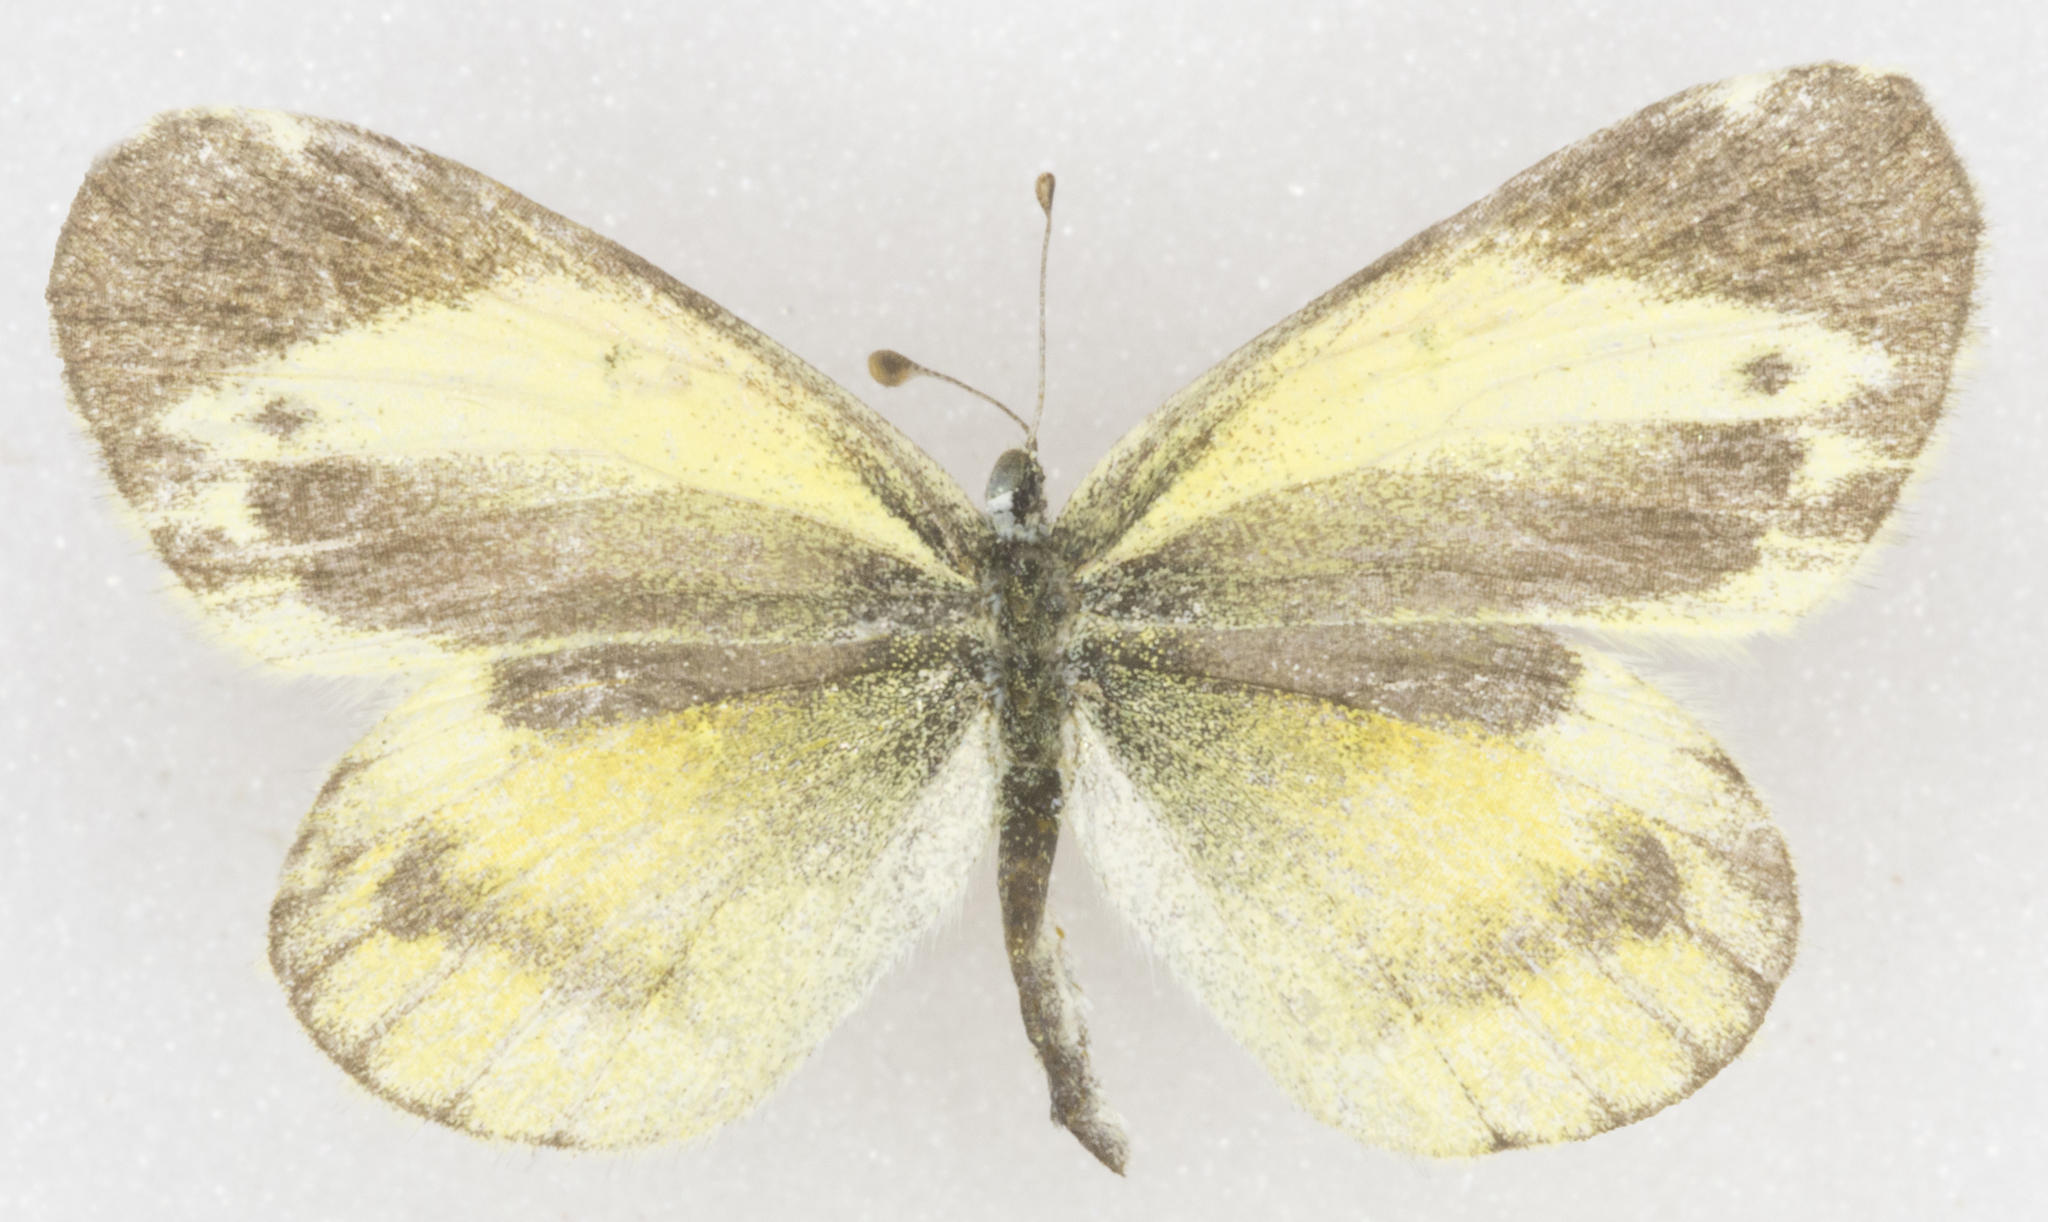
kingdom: Animalia
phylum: Arthropoda
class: Insecta
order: Lepidoptera
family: Pieridae
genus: Nathalis
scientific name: Nathalis iole
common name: Dainty sulphur
